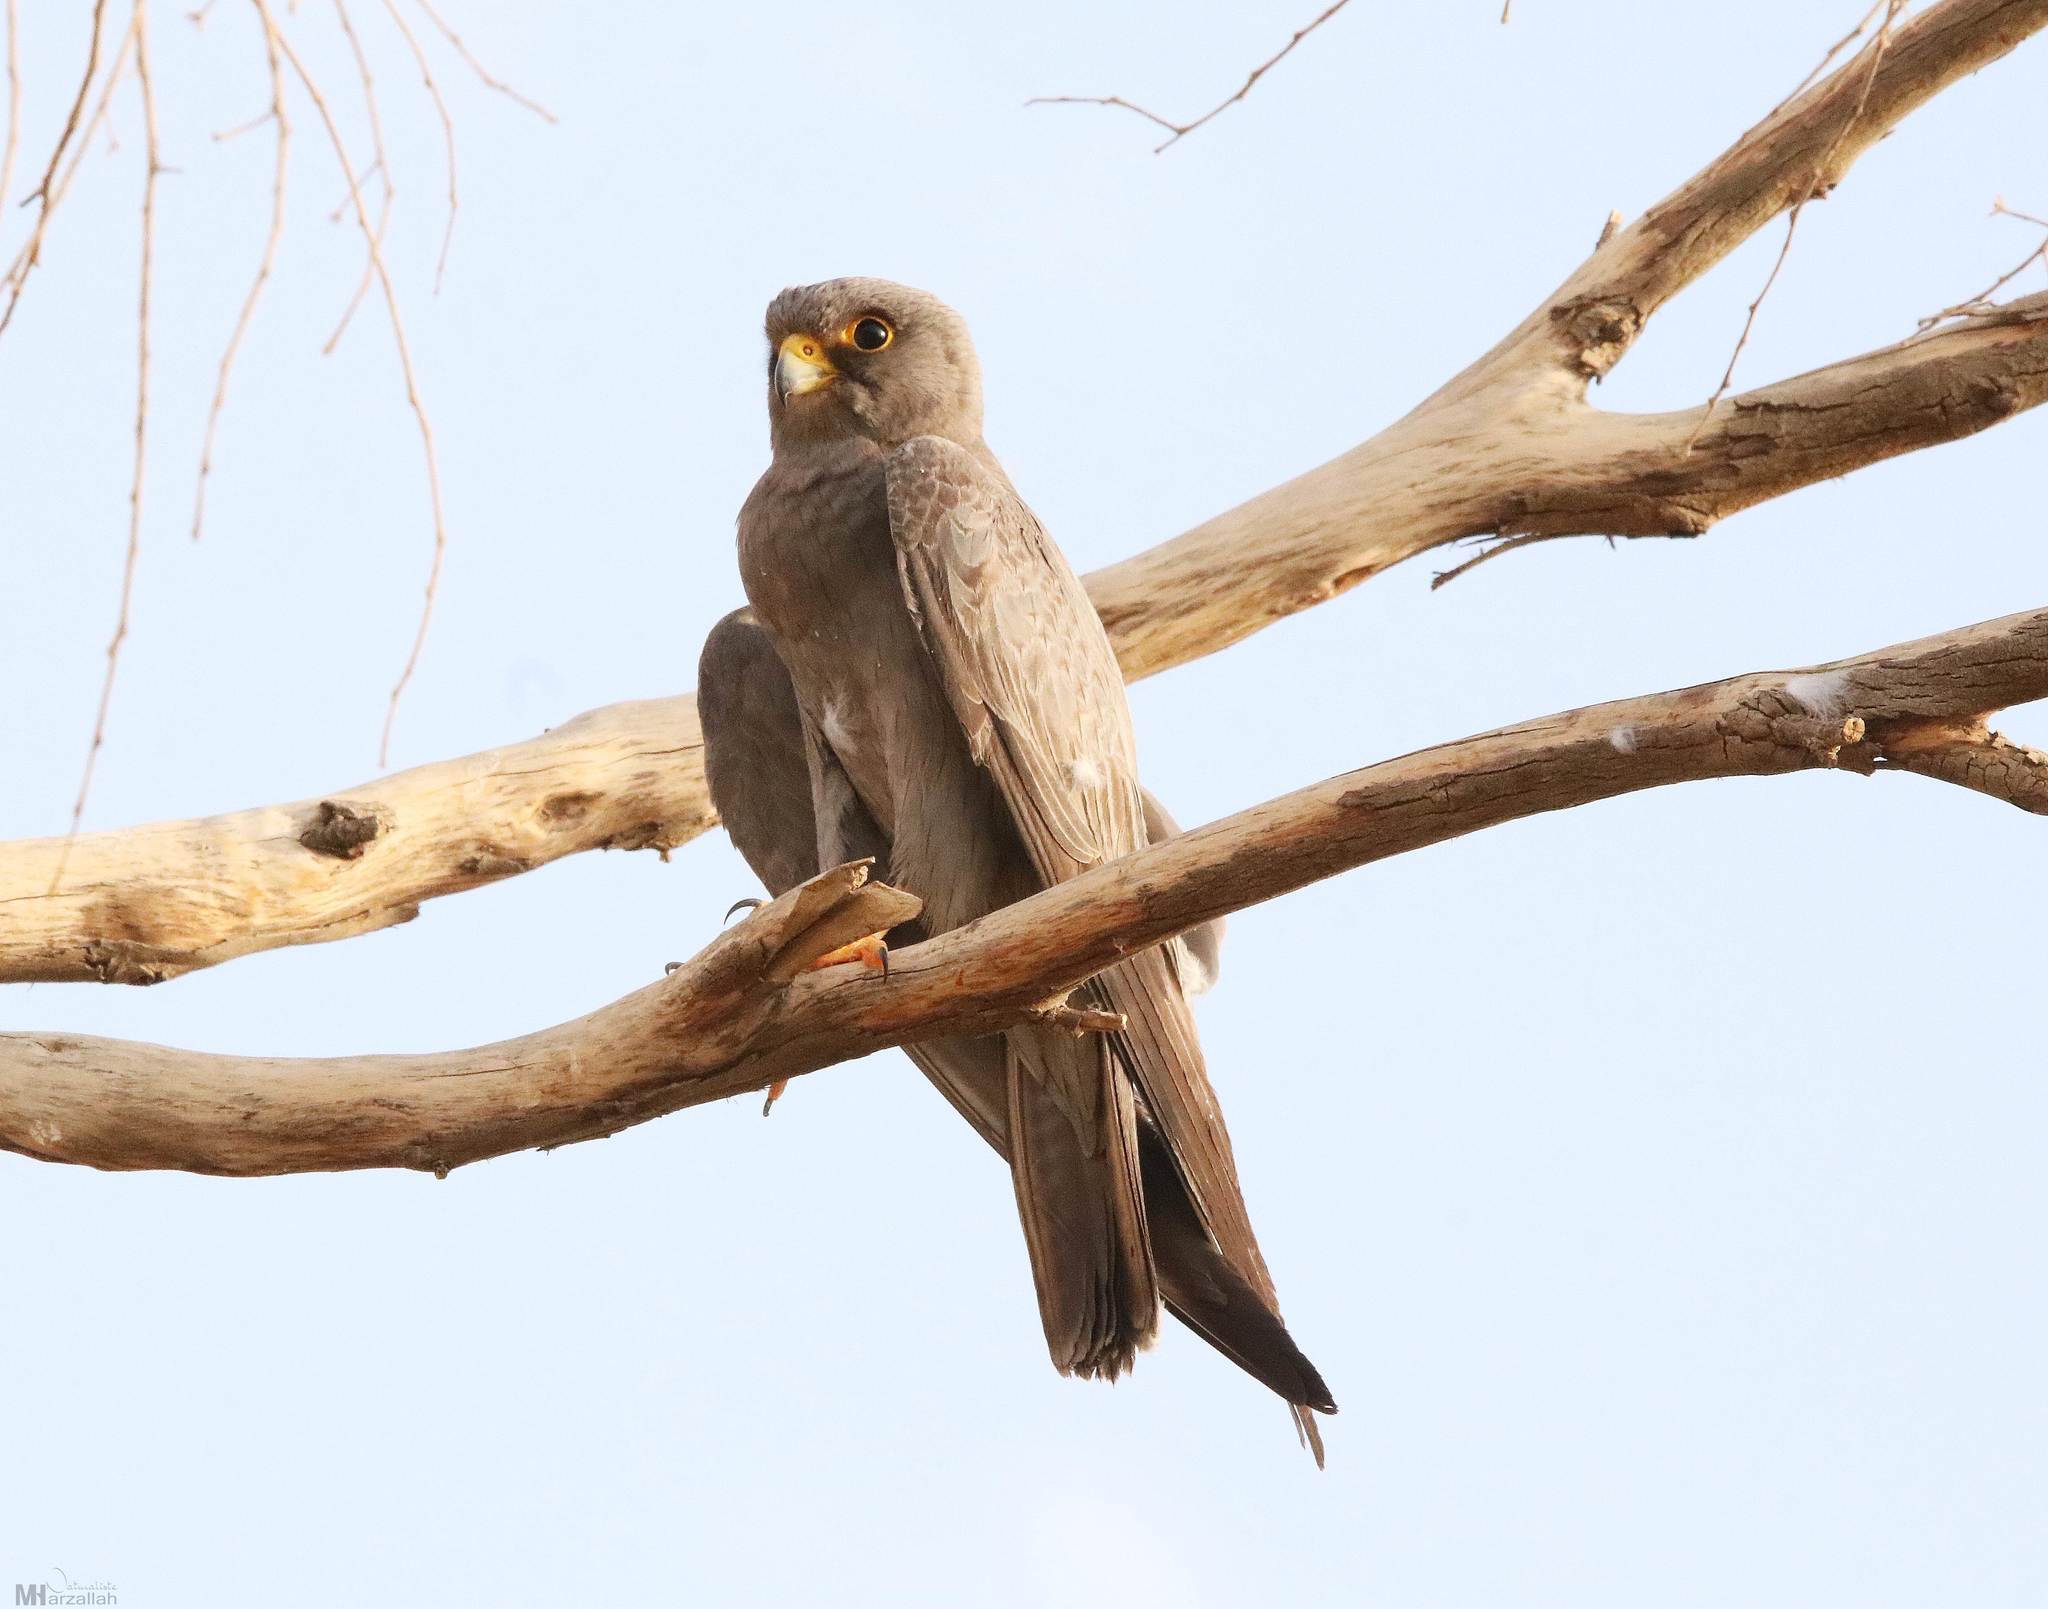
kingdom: Animalia
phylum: Chordata
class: Aves
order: Falconiformes
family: Falconidae
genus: Falco
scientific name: Falco concolor
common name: Sooty falcon
